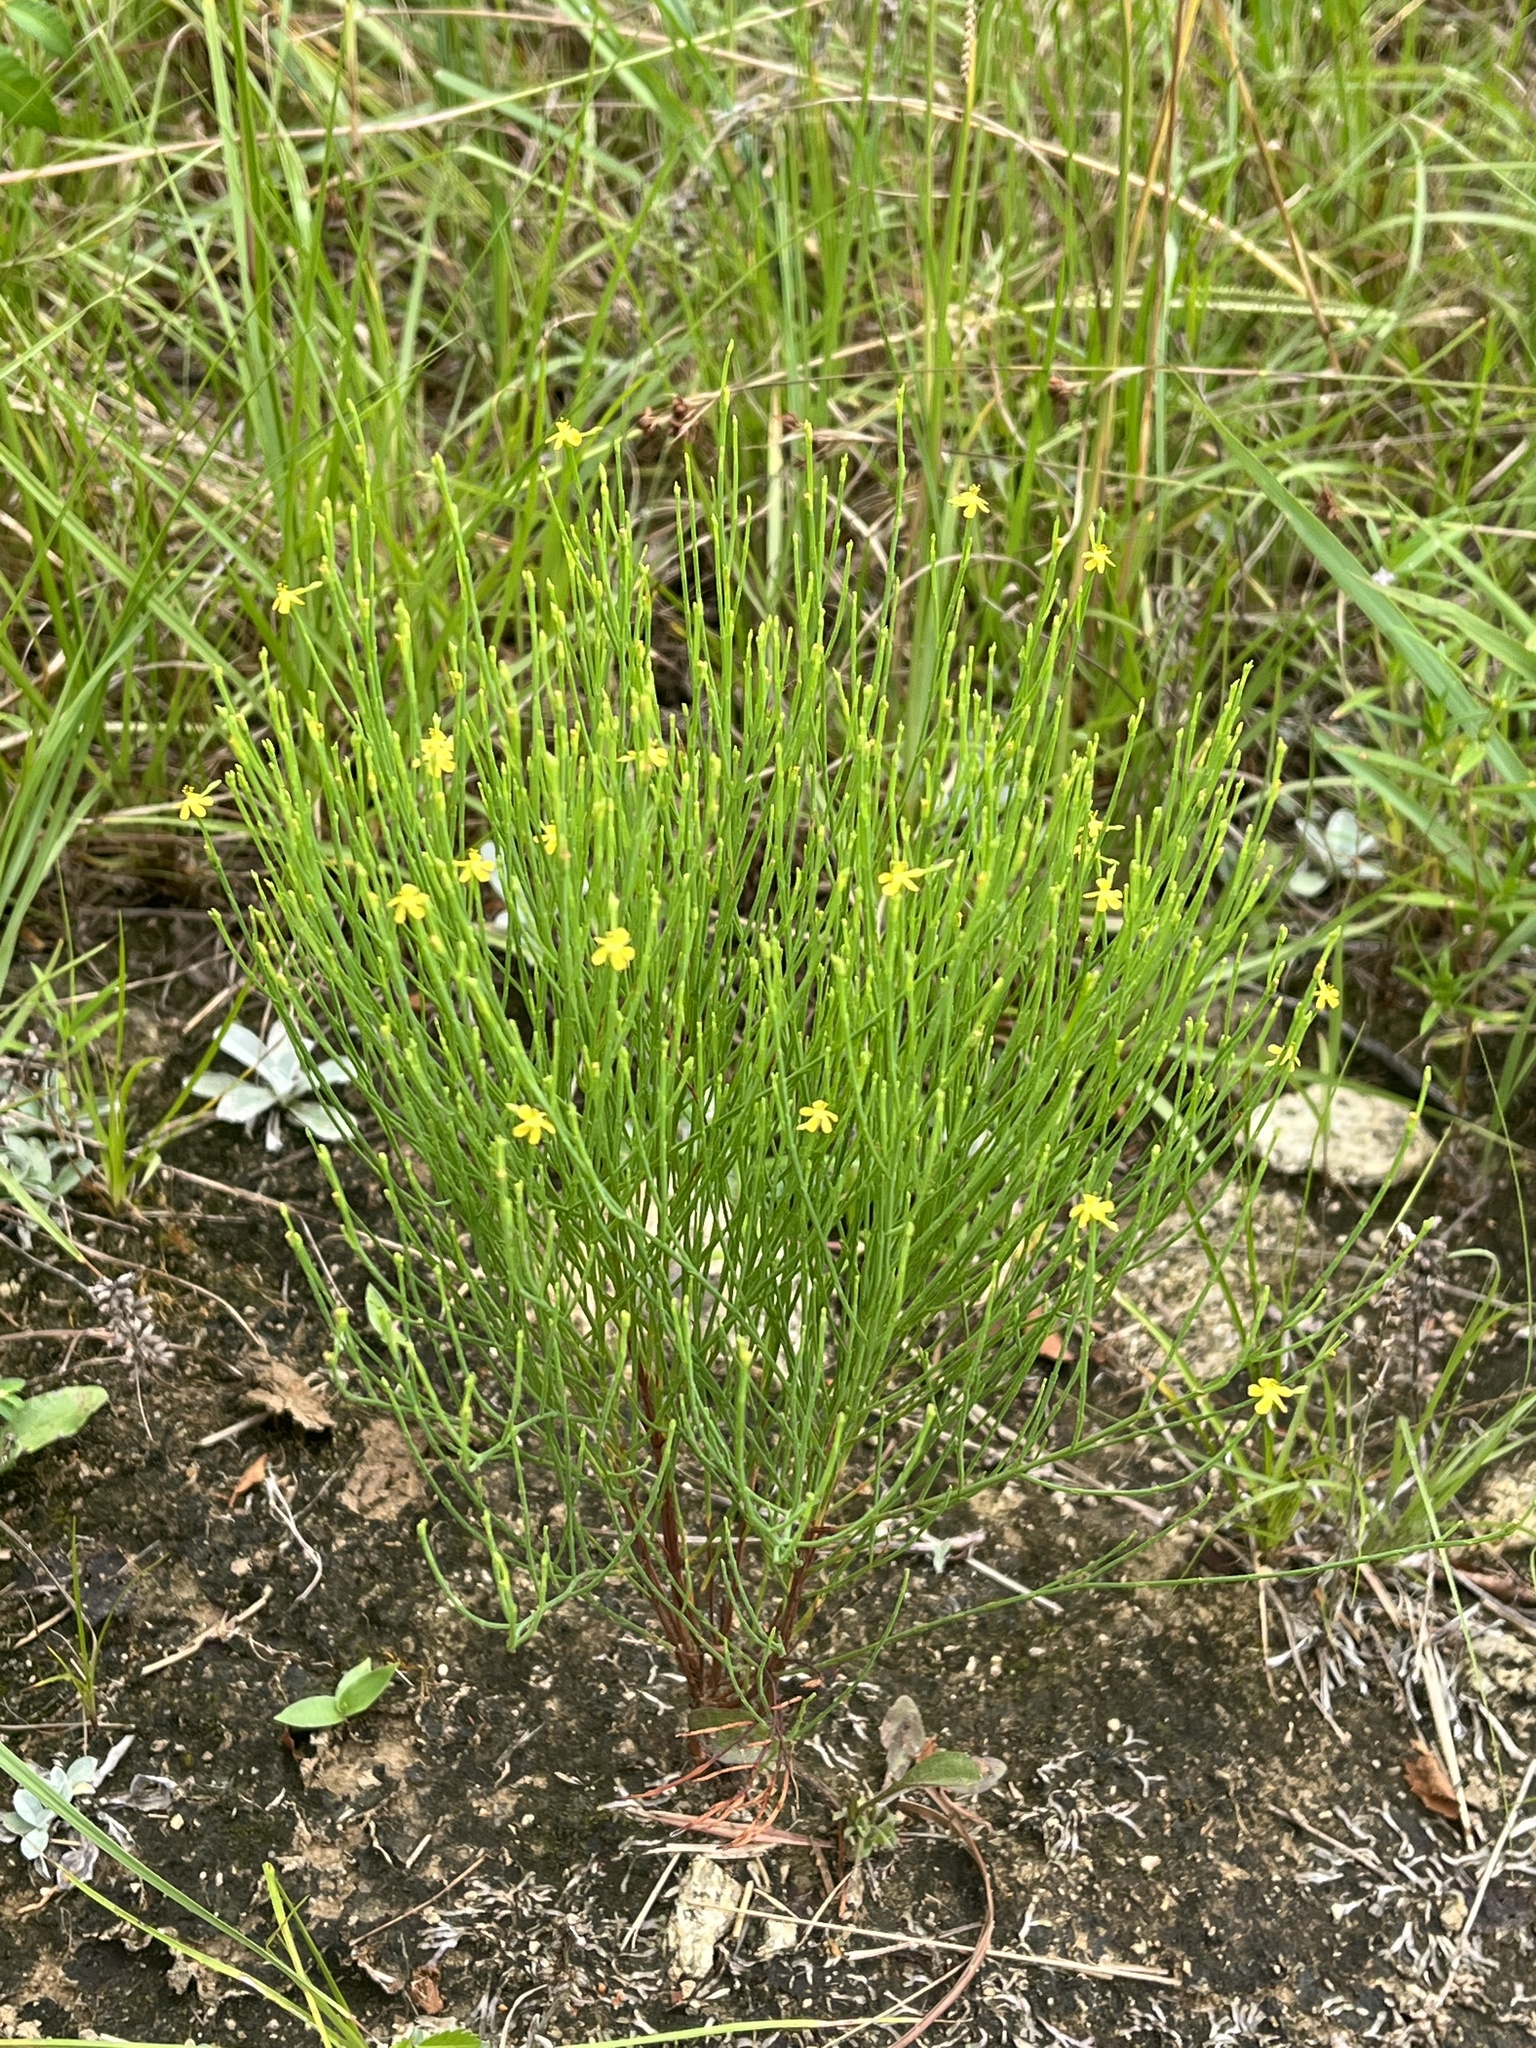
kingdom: Plantae
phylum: Tracheophyta
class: Magnoliopsida
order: Malpighiales
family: Hypericaceae
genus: Hypericum
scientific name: Hypericum gentianoides
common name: Gentian-leaved st. john's-wort
